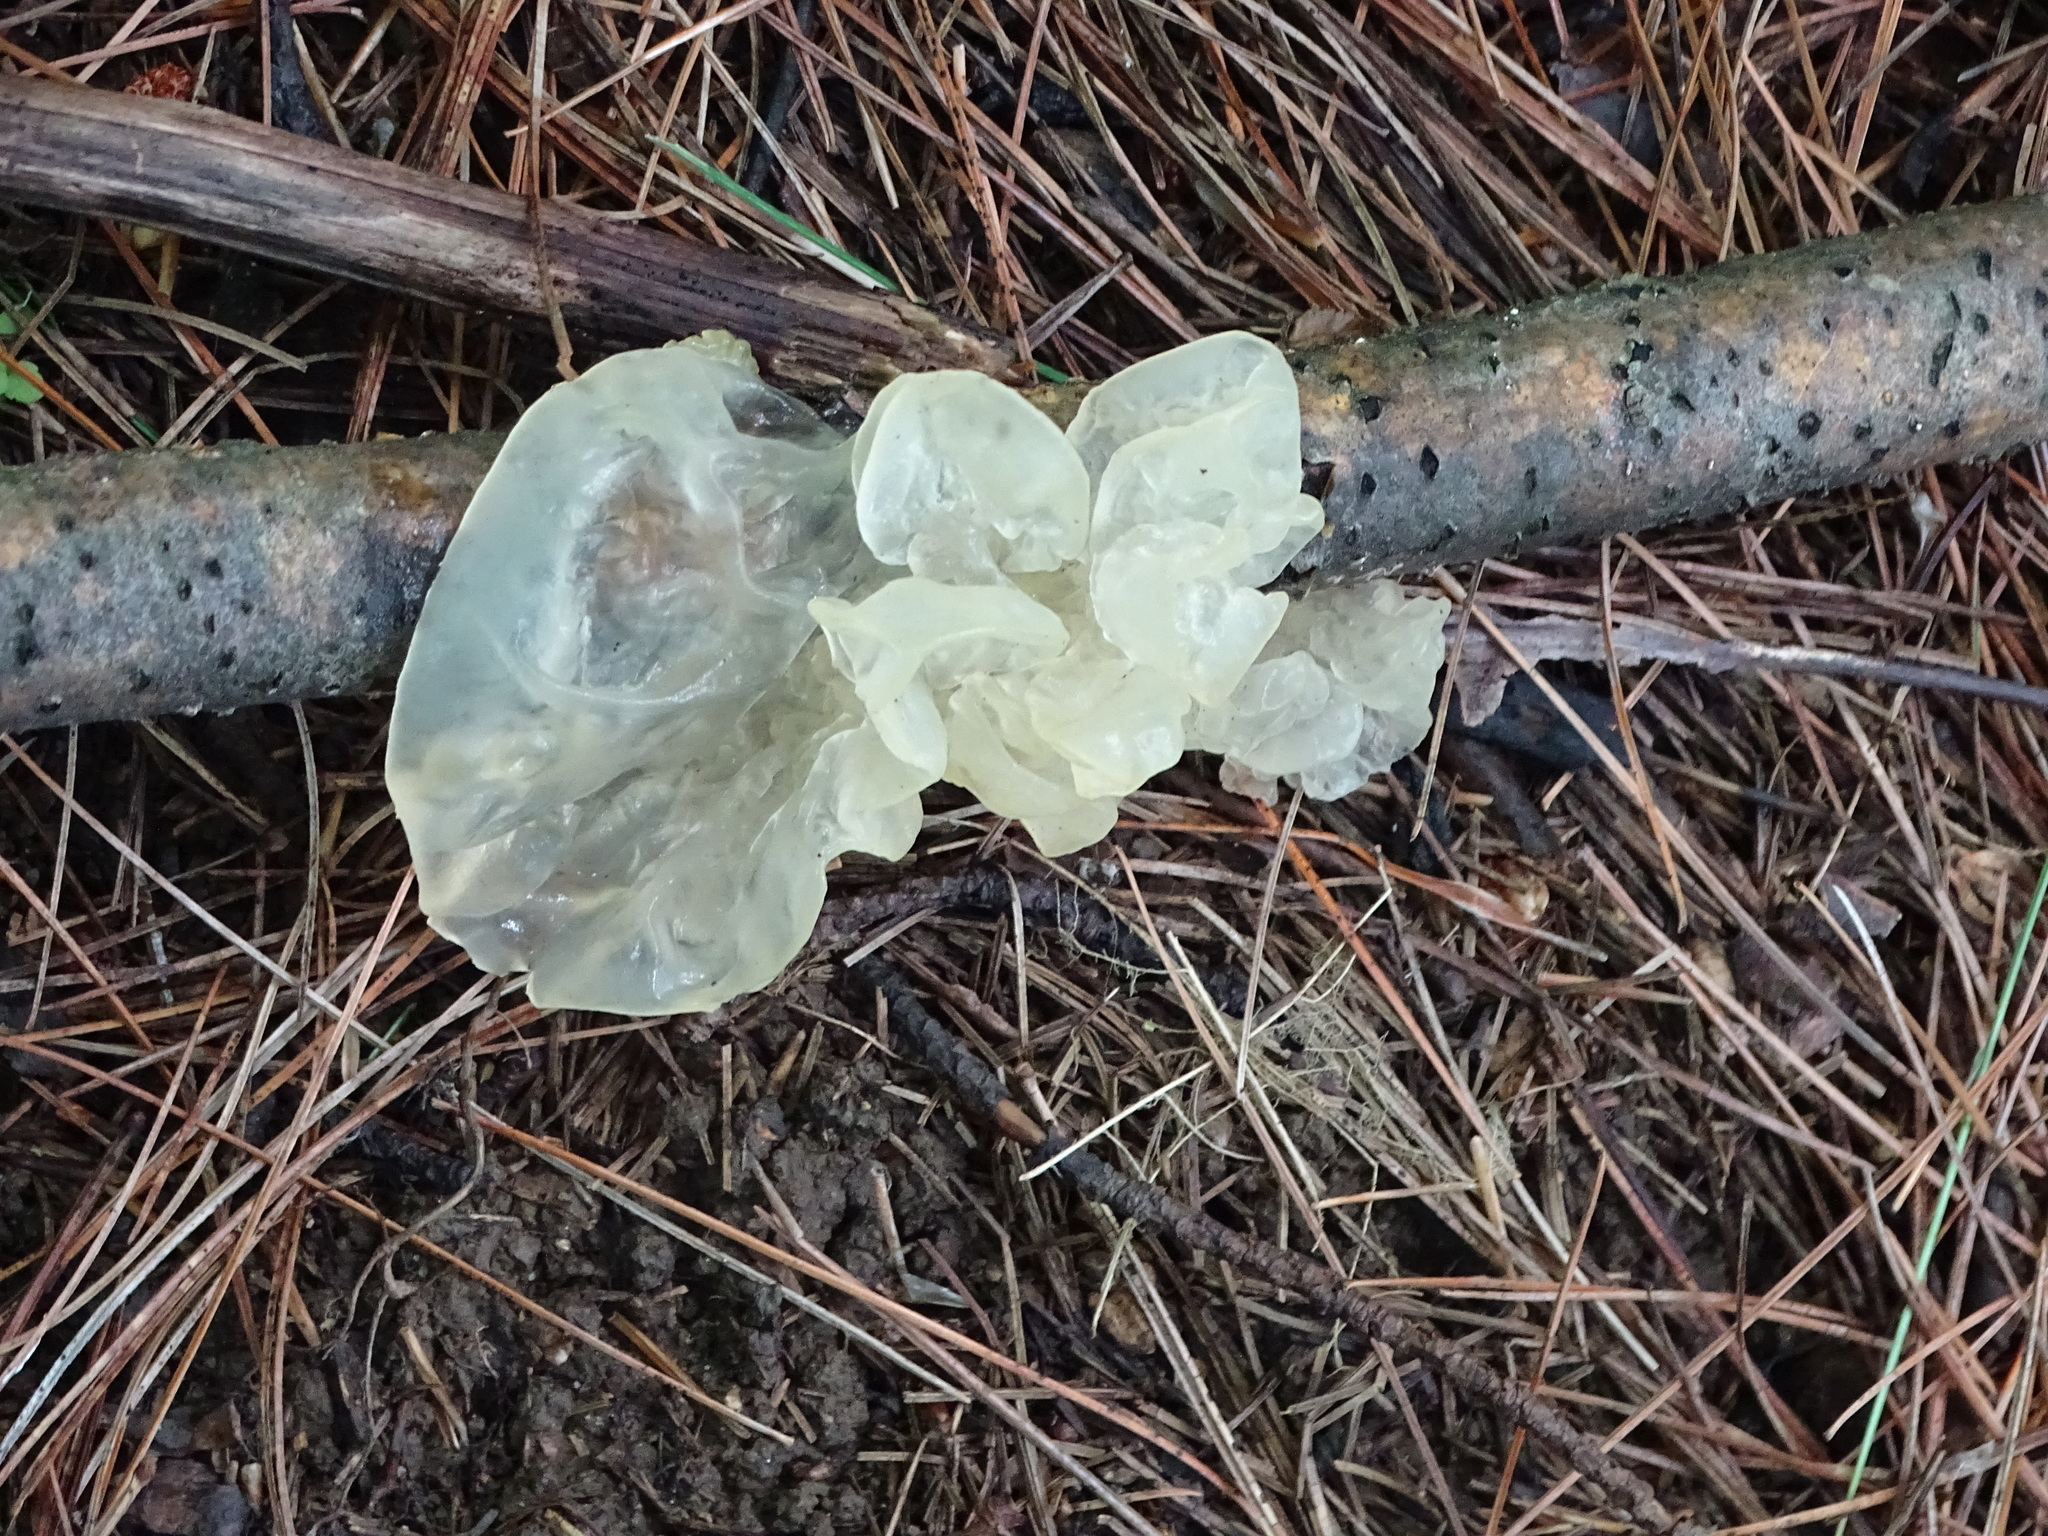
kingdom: Fungi
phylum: Basidiomycota
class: Tremellomycetes
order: Tremellales
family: Tremellaceae
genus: Tremella
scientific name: Tremella fuciformis
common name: Snow fungus
